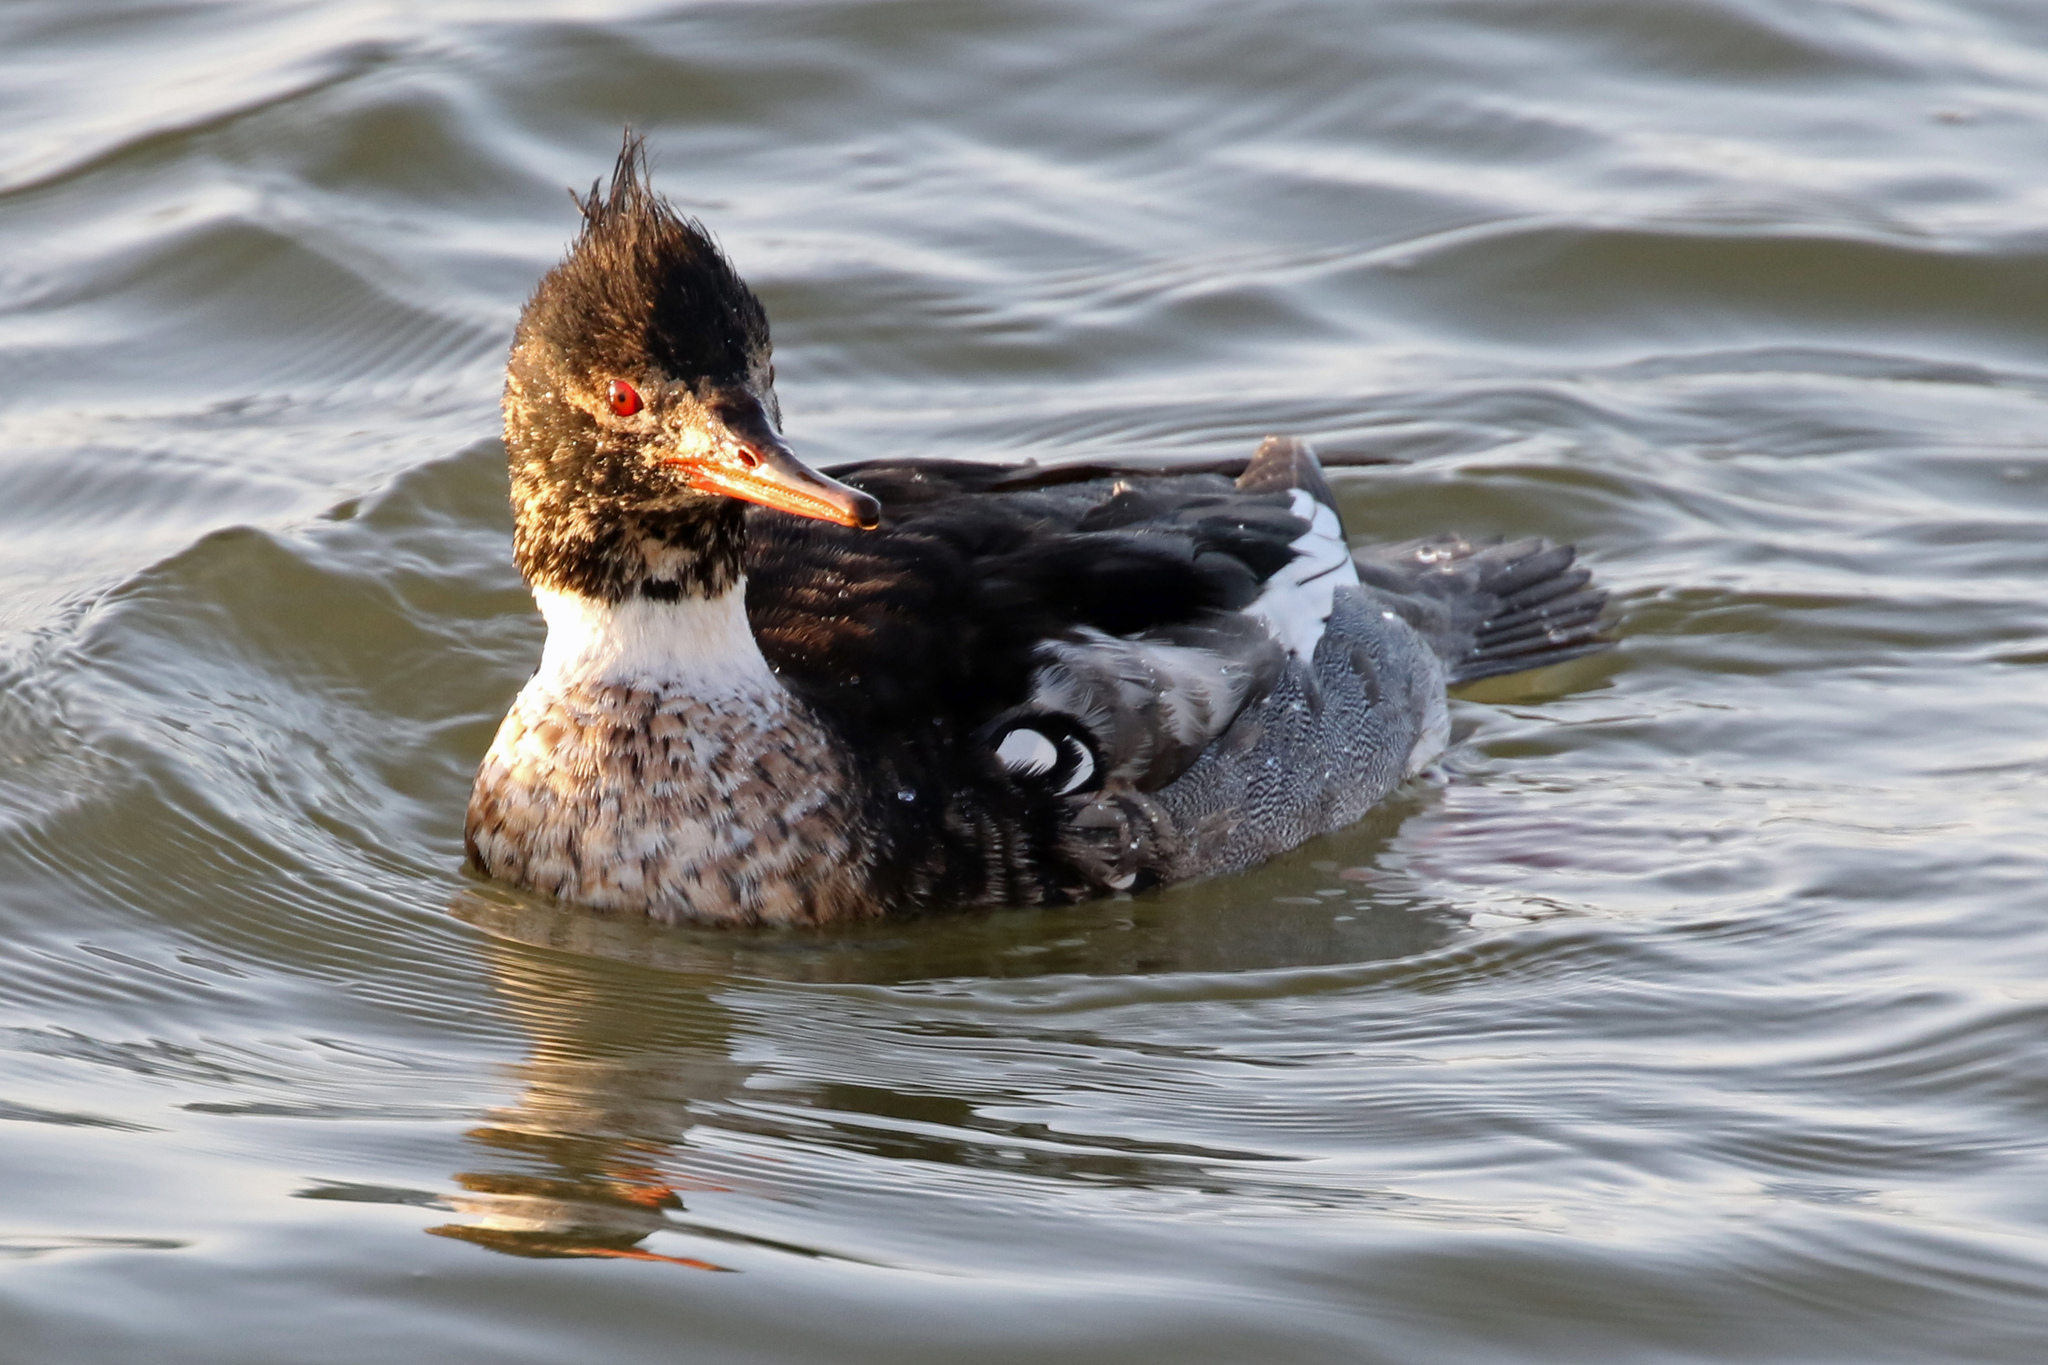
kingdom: Animalia
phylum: Chordata
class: Aves
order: Anseriformes
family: Anatidae
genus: Mergus
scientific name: Mergus serrator
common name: Red-breasted merganser
